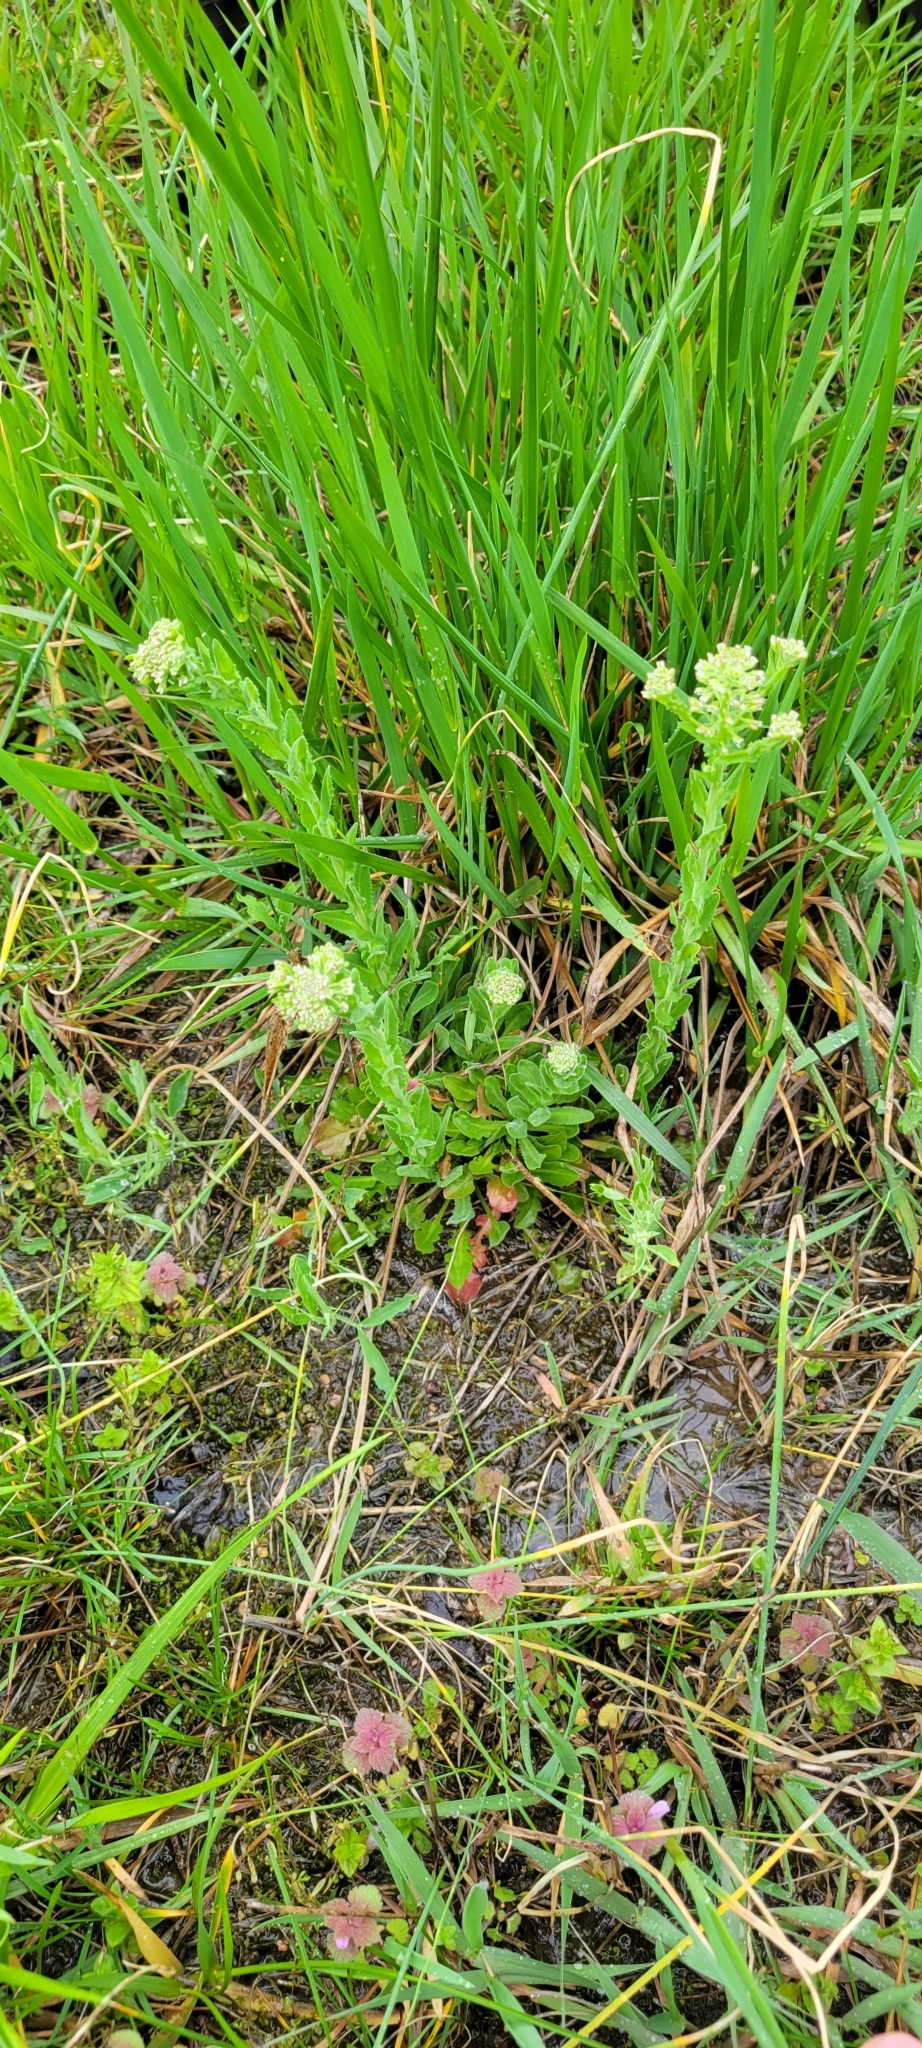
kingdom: Plantae
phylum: Tracheophyta
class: Magnoliopsida
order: Brassicales
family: Brassicaceae
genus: Lepidium
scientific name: Lepidium campestre
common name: Field pepperwort
